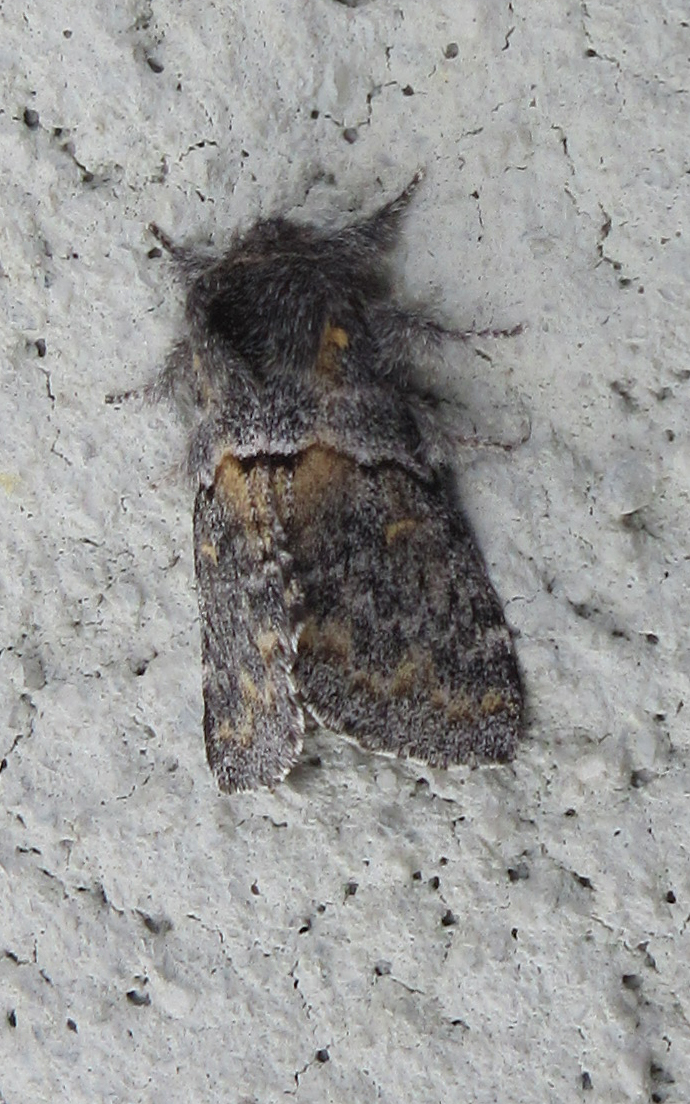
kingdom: Animalia
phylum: Arthropoda
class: Insecta
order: Lepidoptera
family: Notodontidae
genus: Gluphisia
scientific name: Gluphisia septentrionis
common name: Common gluphisia
